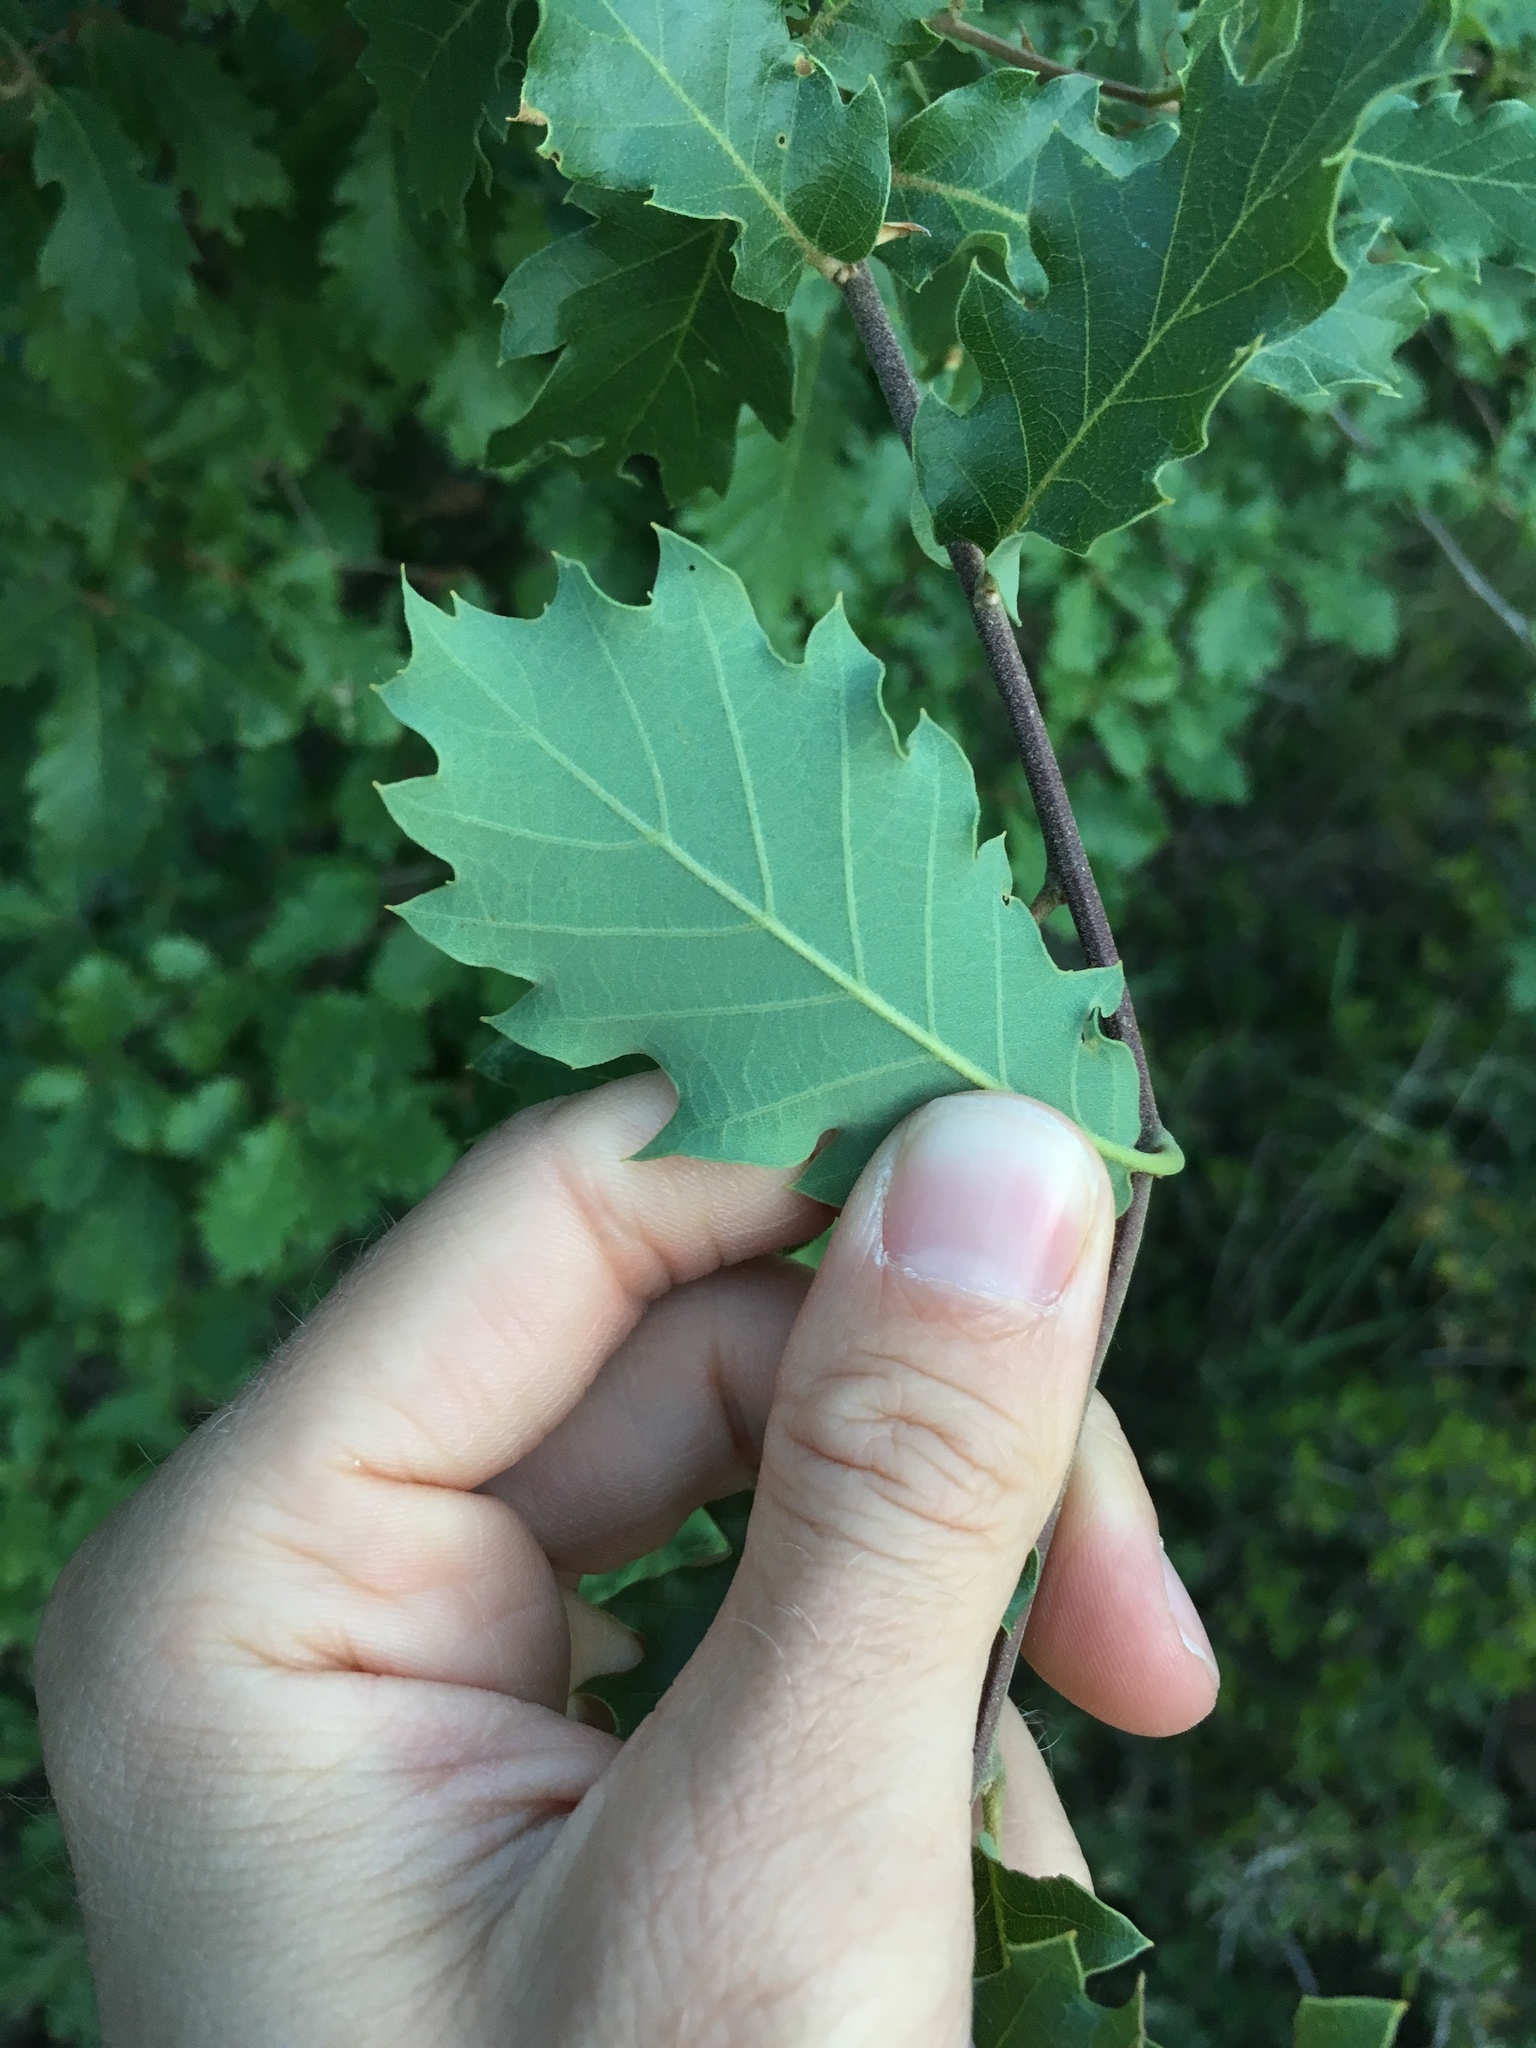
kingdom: Plantae
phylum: Tracheophyta
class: Magnoliopsida
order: Fagales
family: Fagaceae
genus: Quercus
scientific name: Quercus cerrioides
